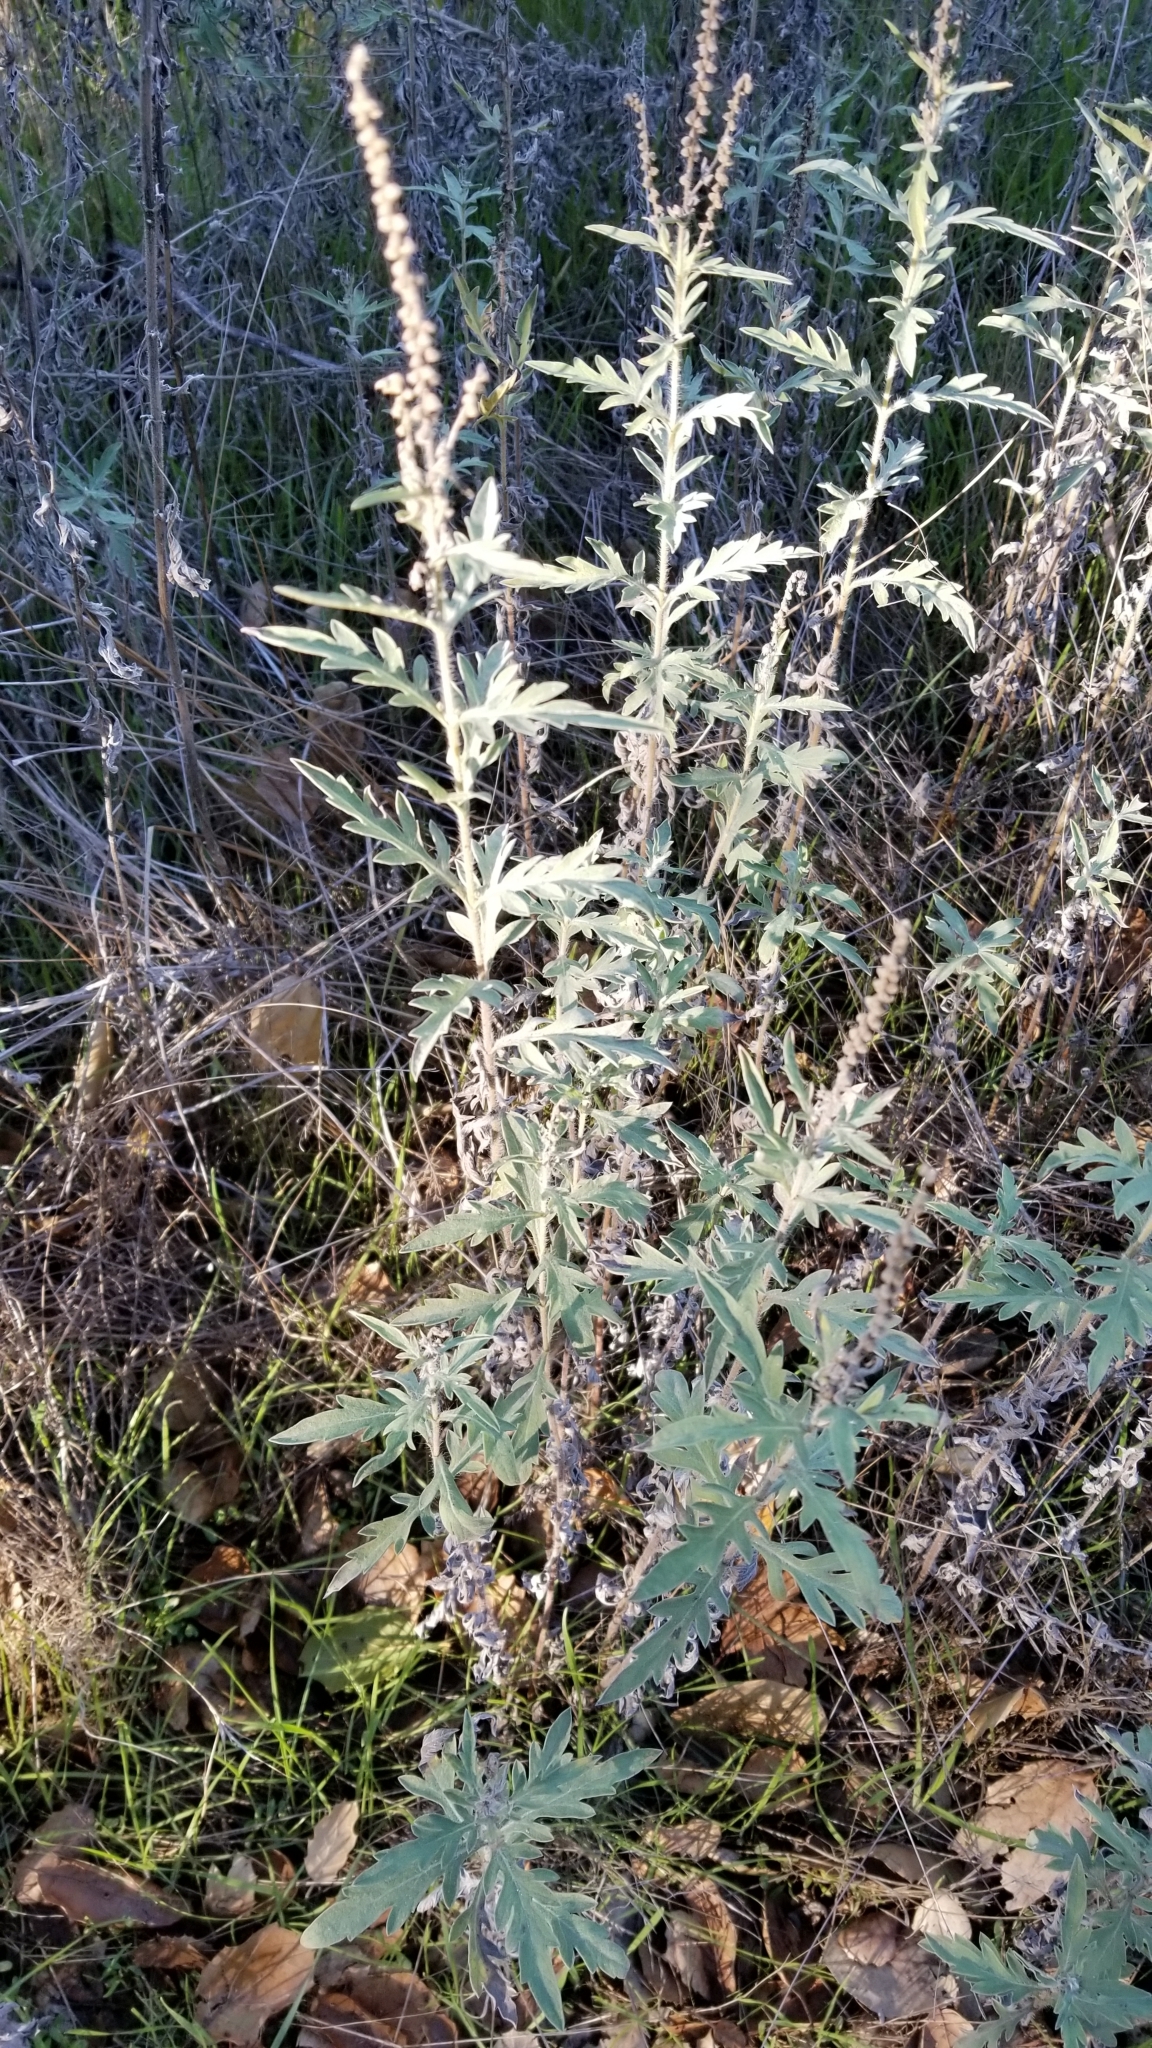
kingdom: Plantae
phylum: Tracheophyta
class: Magnoliopsida
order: Asterales
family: Asteraceae
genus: Ambrosia
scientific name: Ambrosia psilostachya
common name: Perennial ragweed
